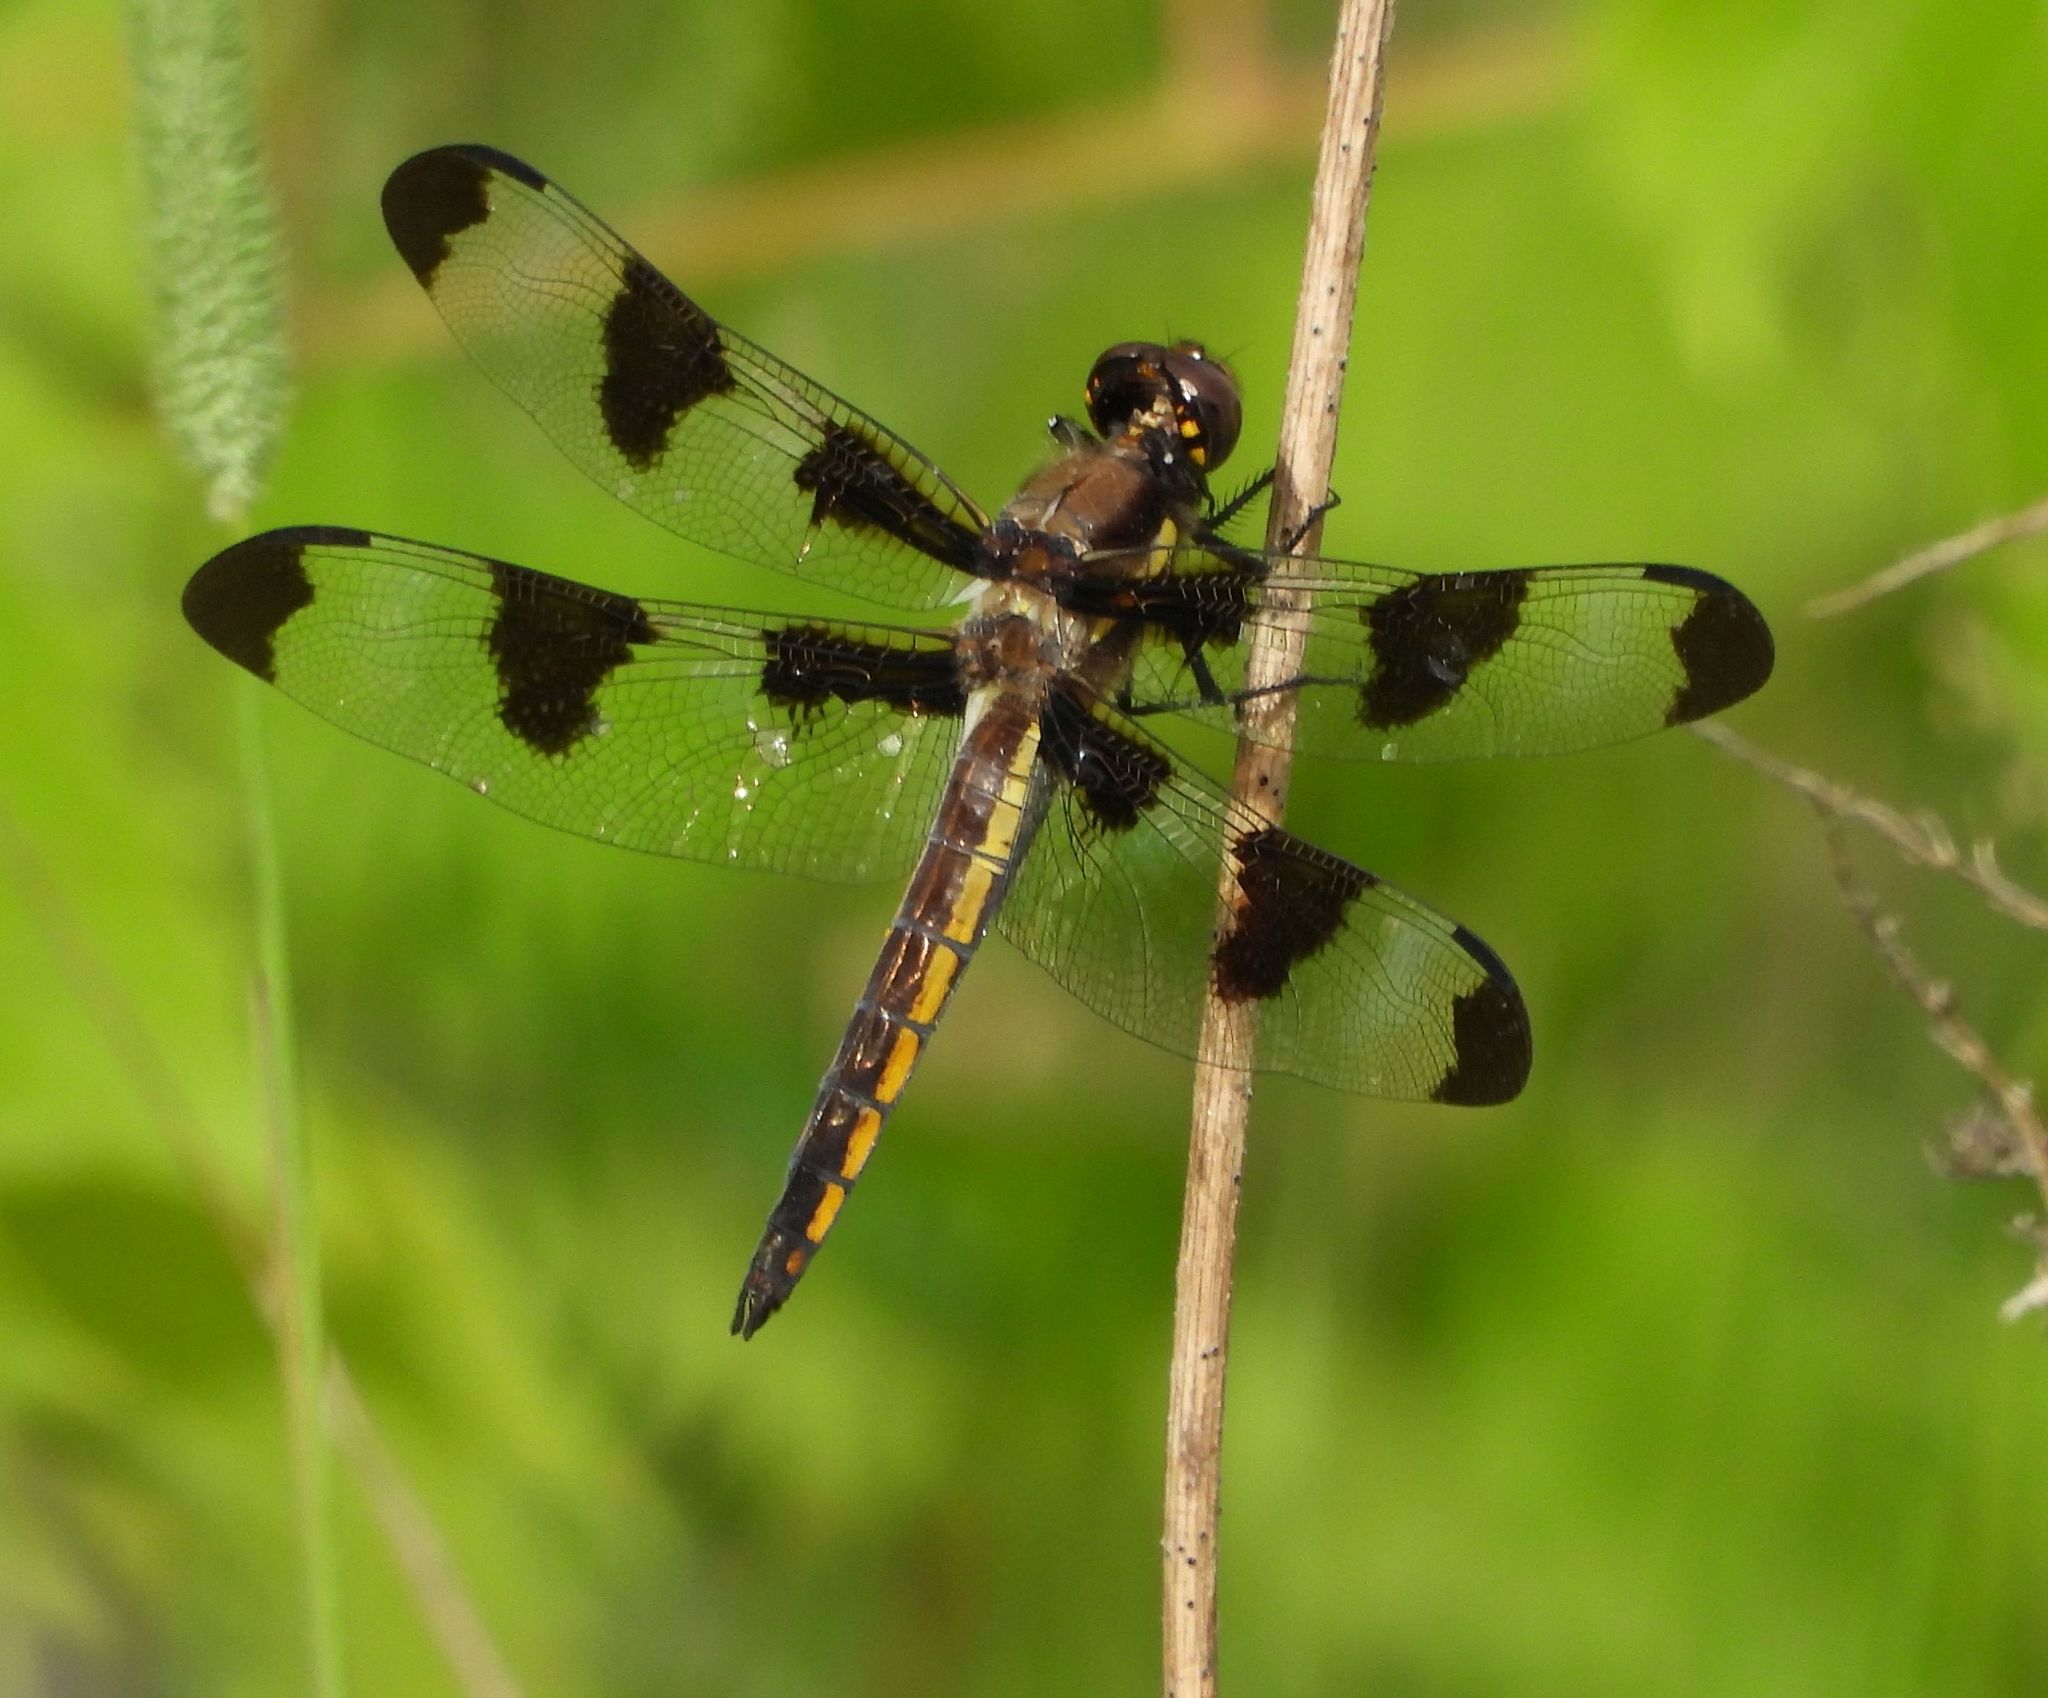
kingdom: Animalia
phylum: Arthropoda
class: Insecta
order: Odonata
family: Libellulidae
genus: Libellula
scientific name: Libellula pulchella
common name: Twelve-spotted skimmer
